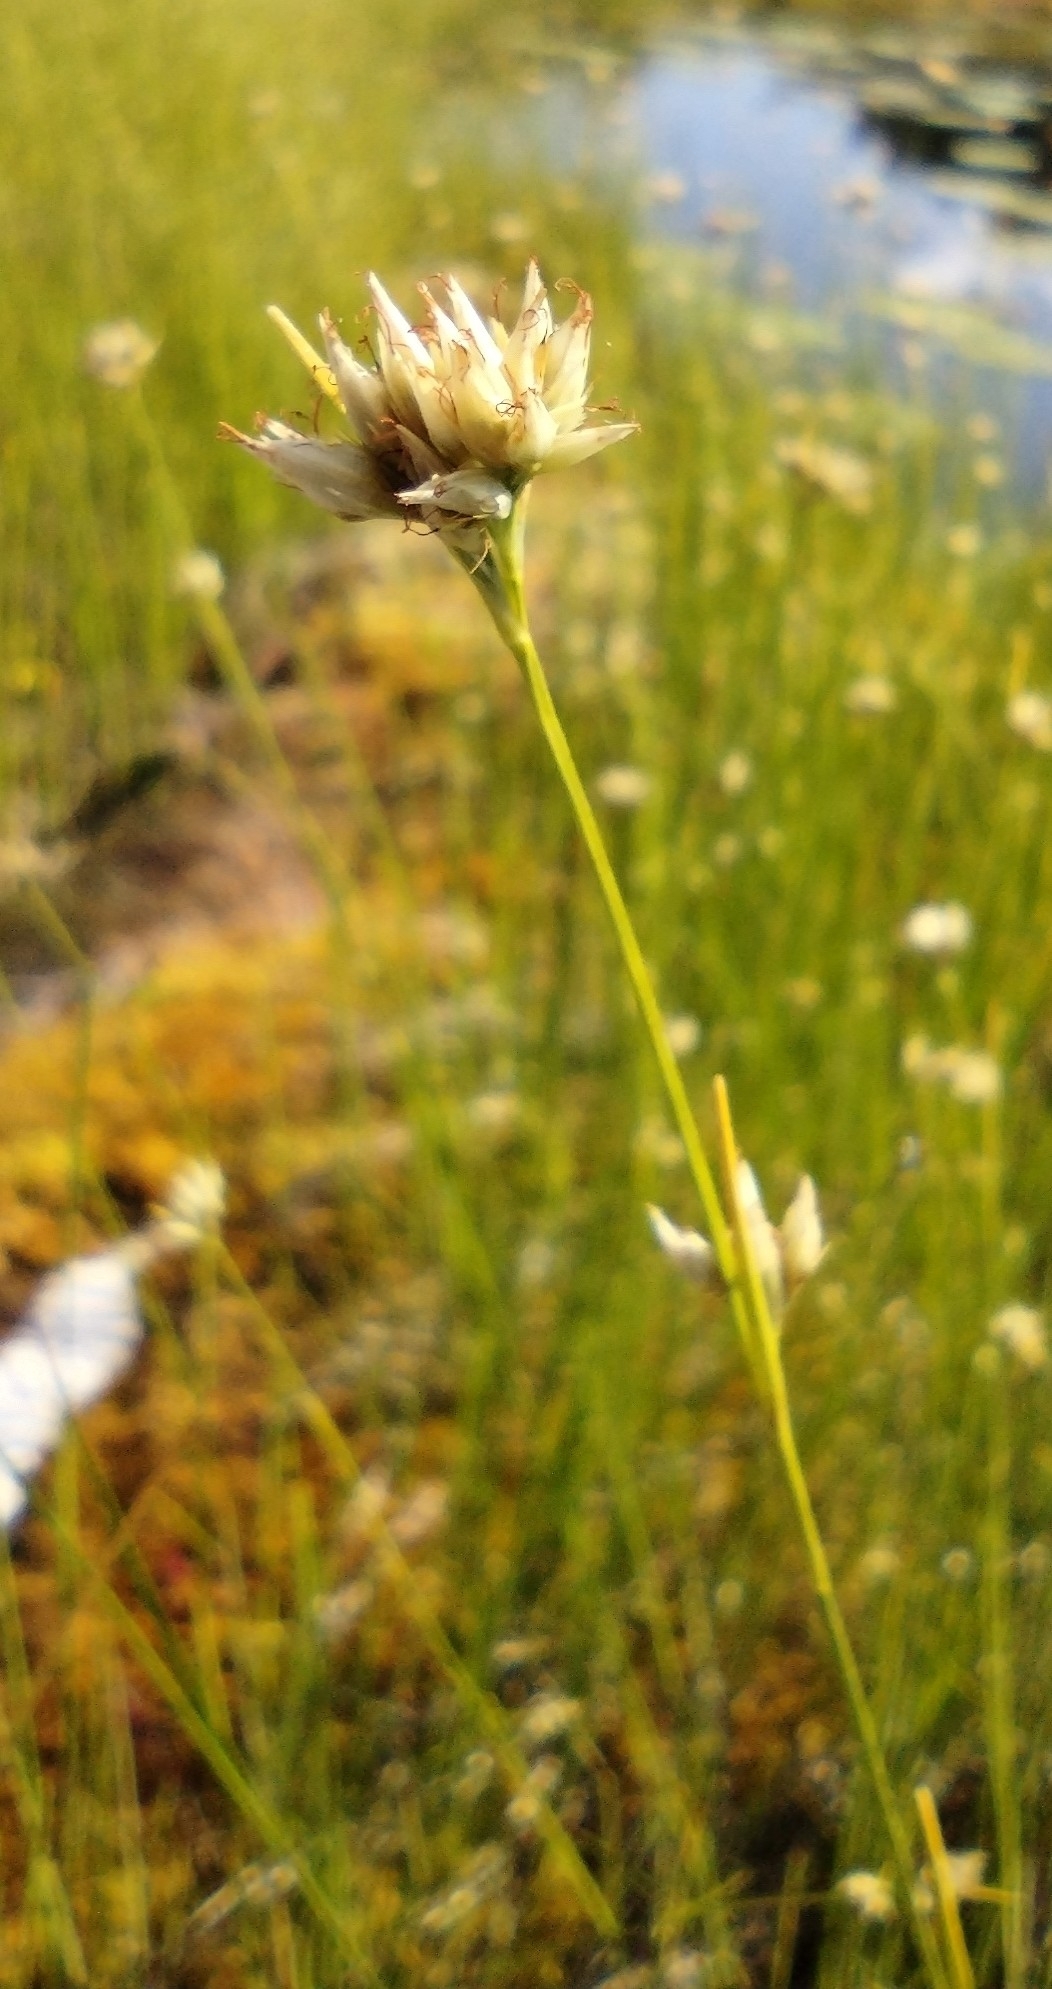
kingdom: Plantae
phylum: Tracheophyta
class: Liliopsida
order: Poales
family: Cyperaceae
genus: Rhynchospora
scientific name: Rhynchospora alba
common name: White beak-sedge
